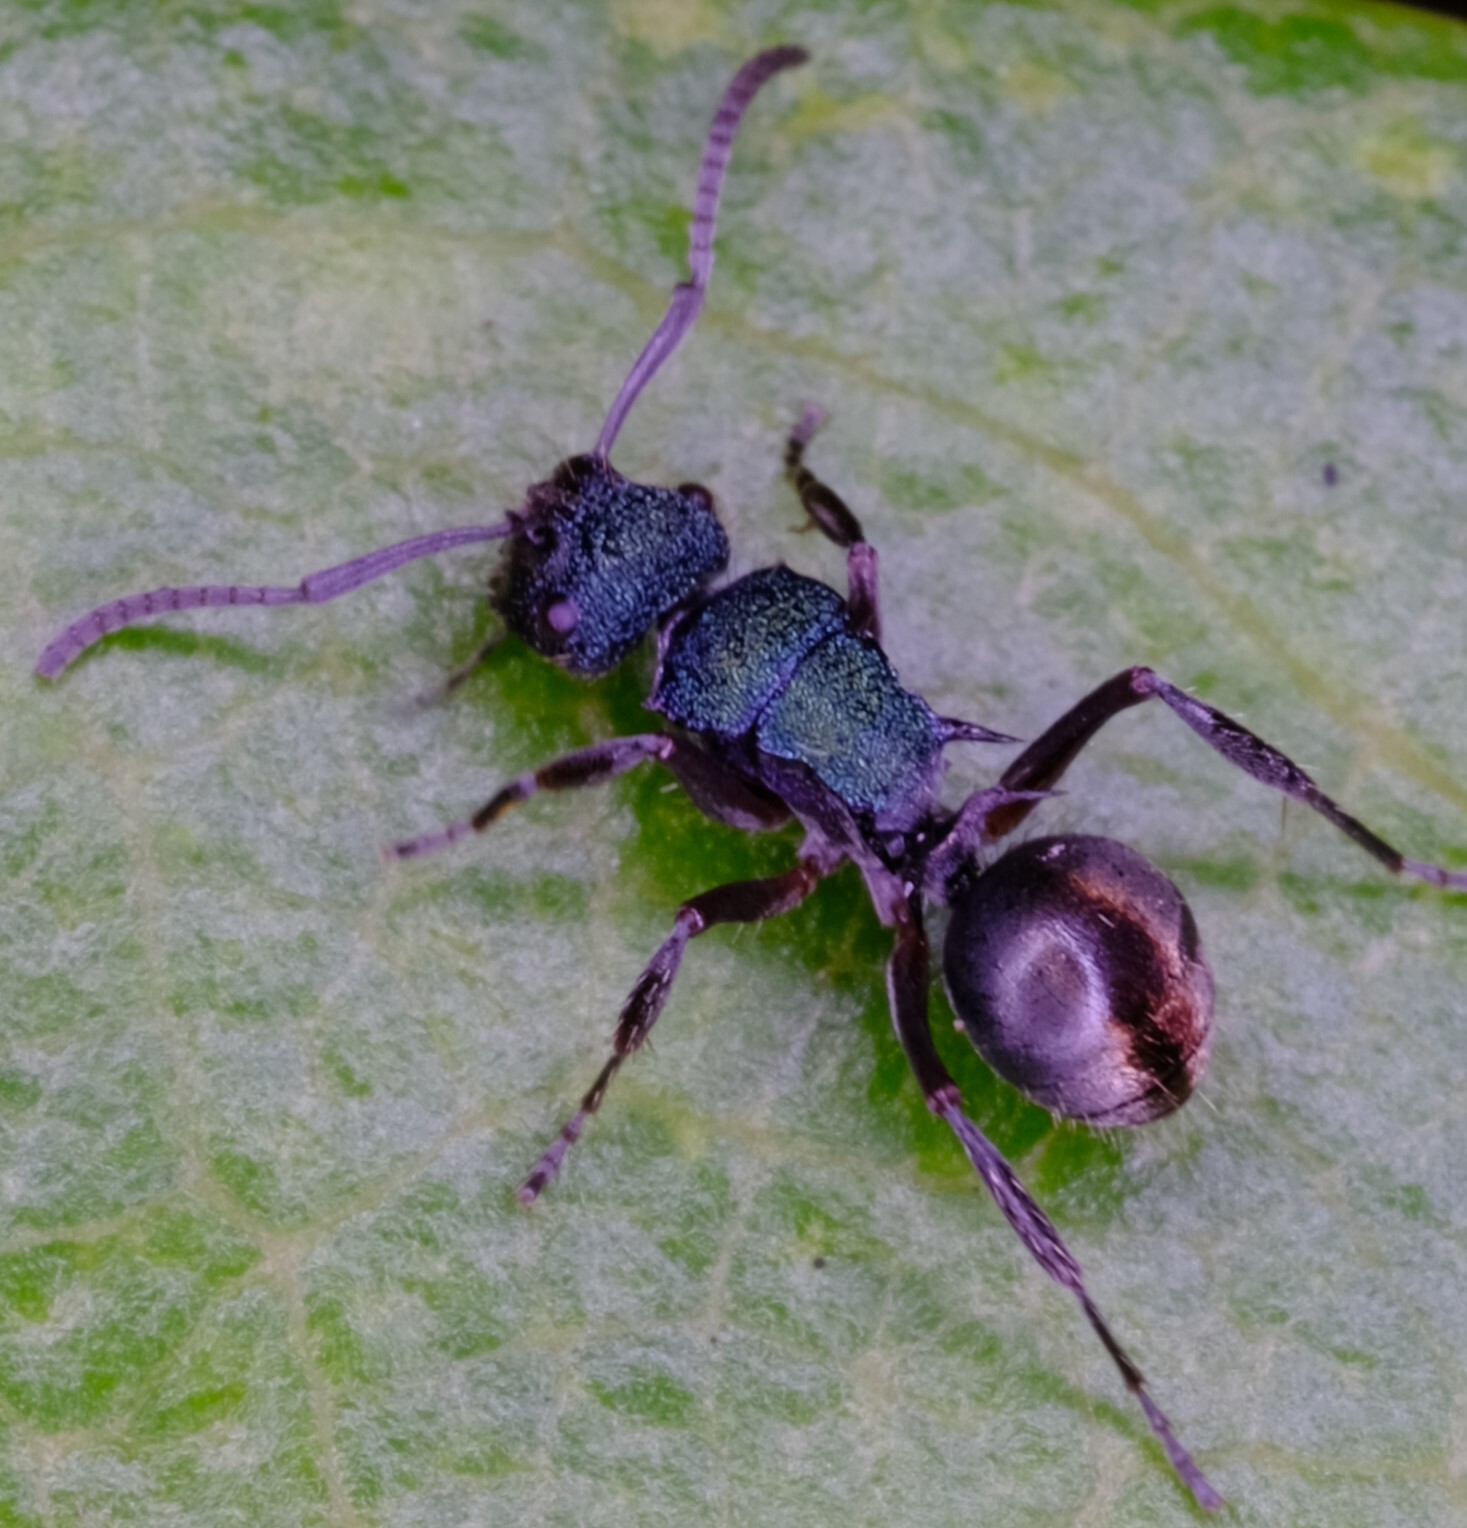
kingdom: Animalia
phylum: Arthropoda
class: Insecta
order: Hymenoptera
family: Formicidae
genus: Polyrhachis
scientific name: Polyrhachis hookeri
